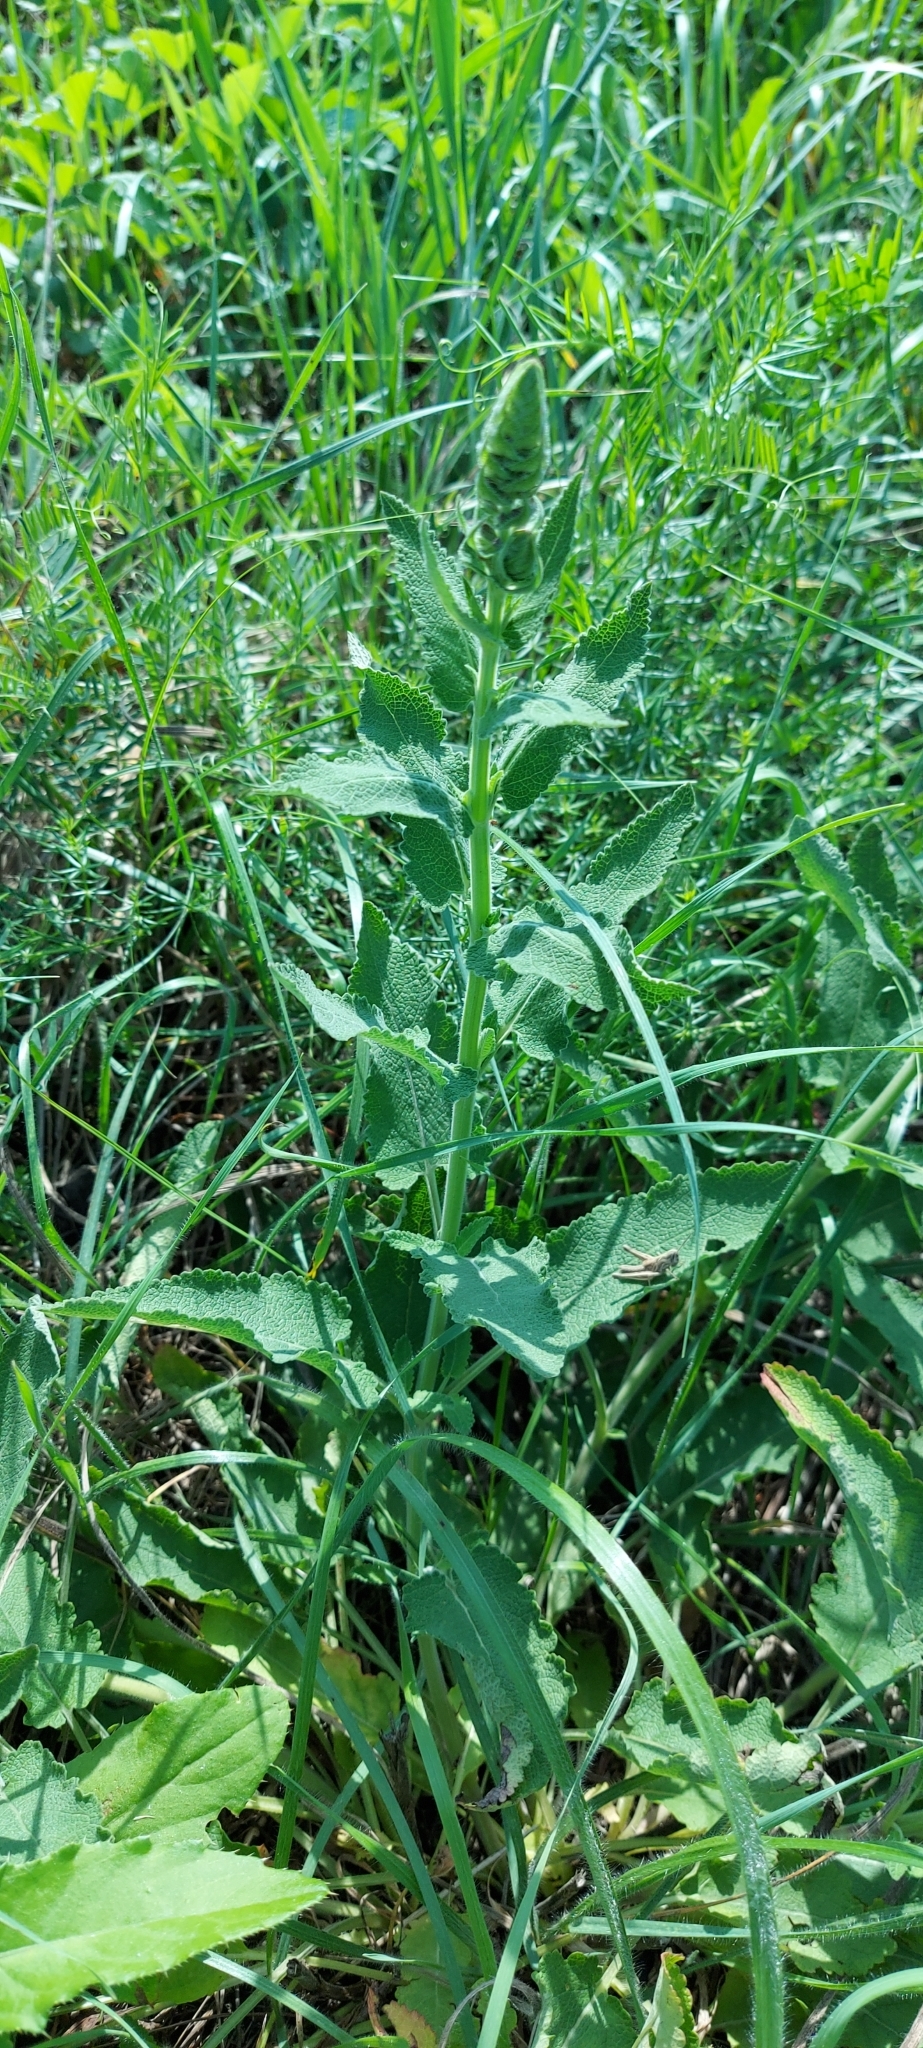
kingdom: Plantae
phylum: Tracheophyta
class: Magnoliopsida
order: Lamiales
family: Lamiaceae
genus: Salvia
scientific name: Salvia nemorosa
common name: Balkan clary
